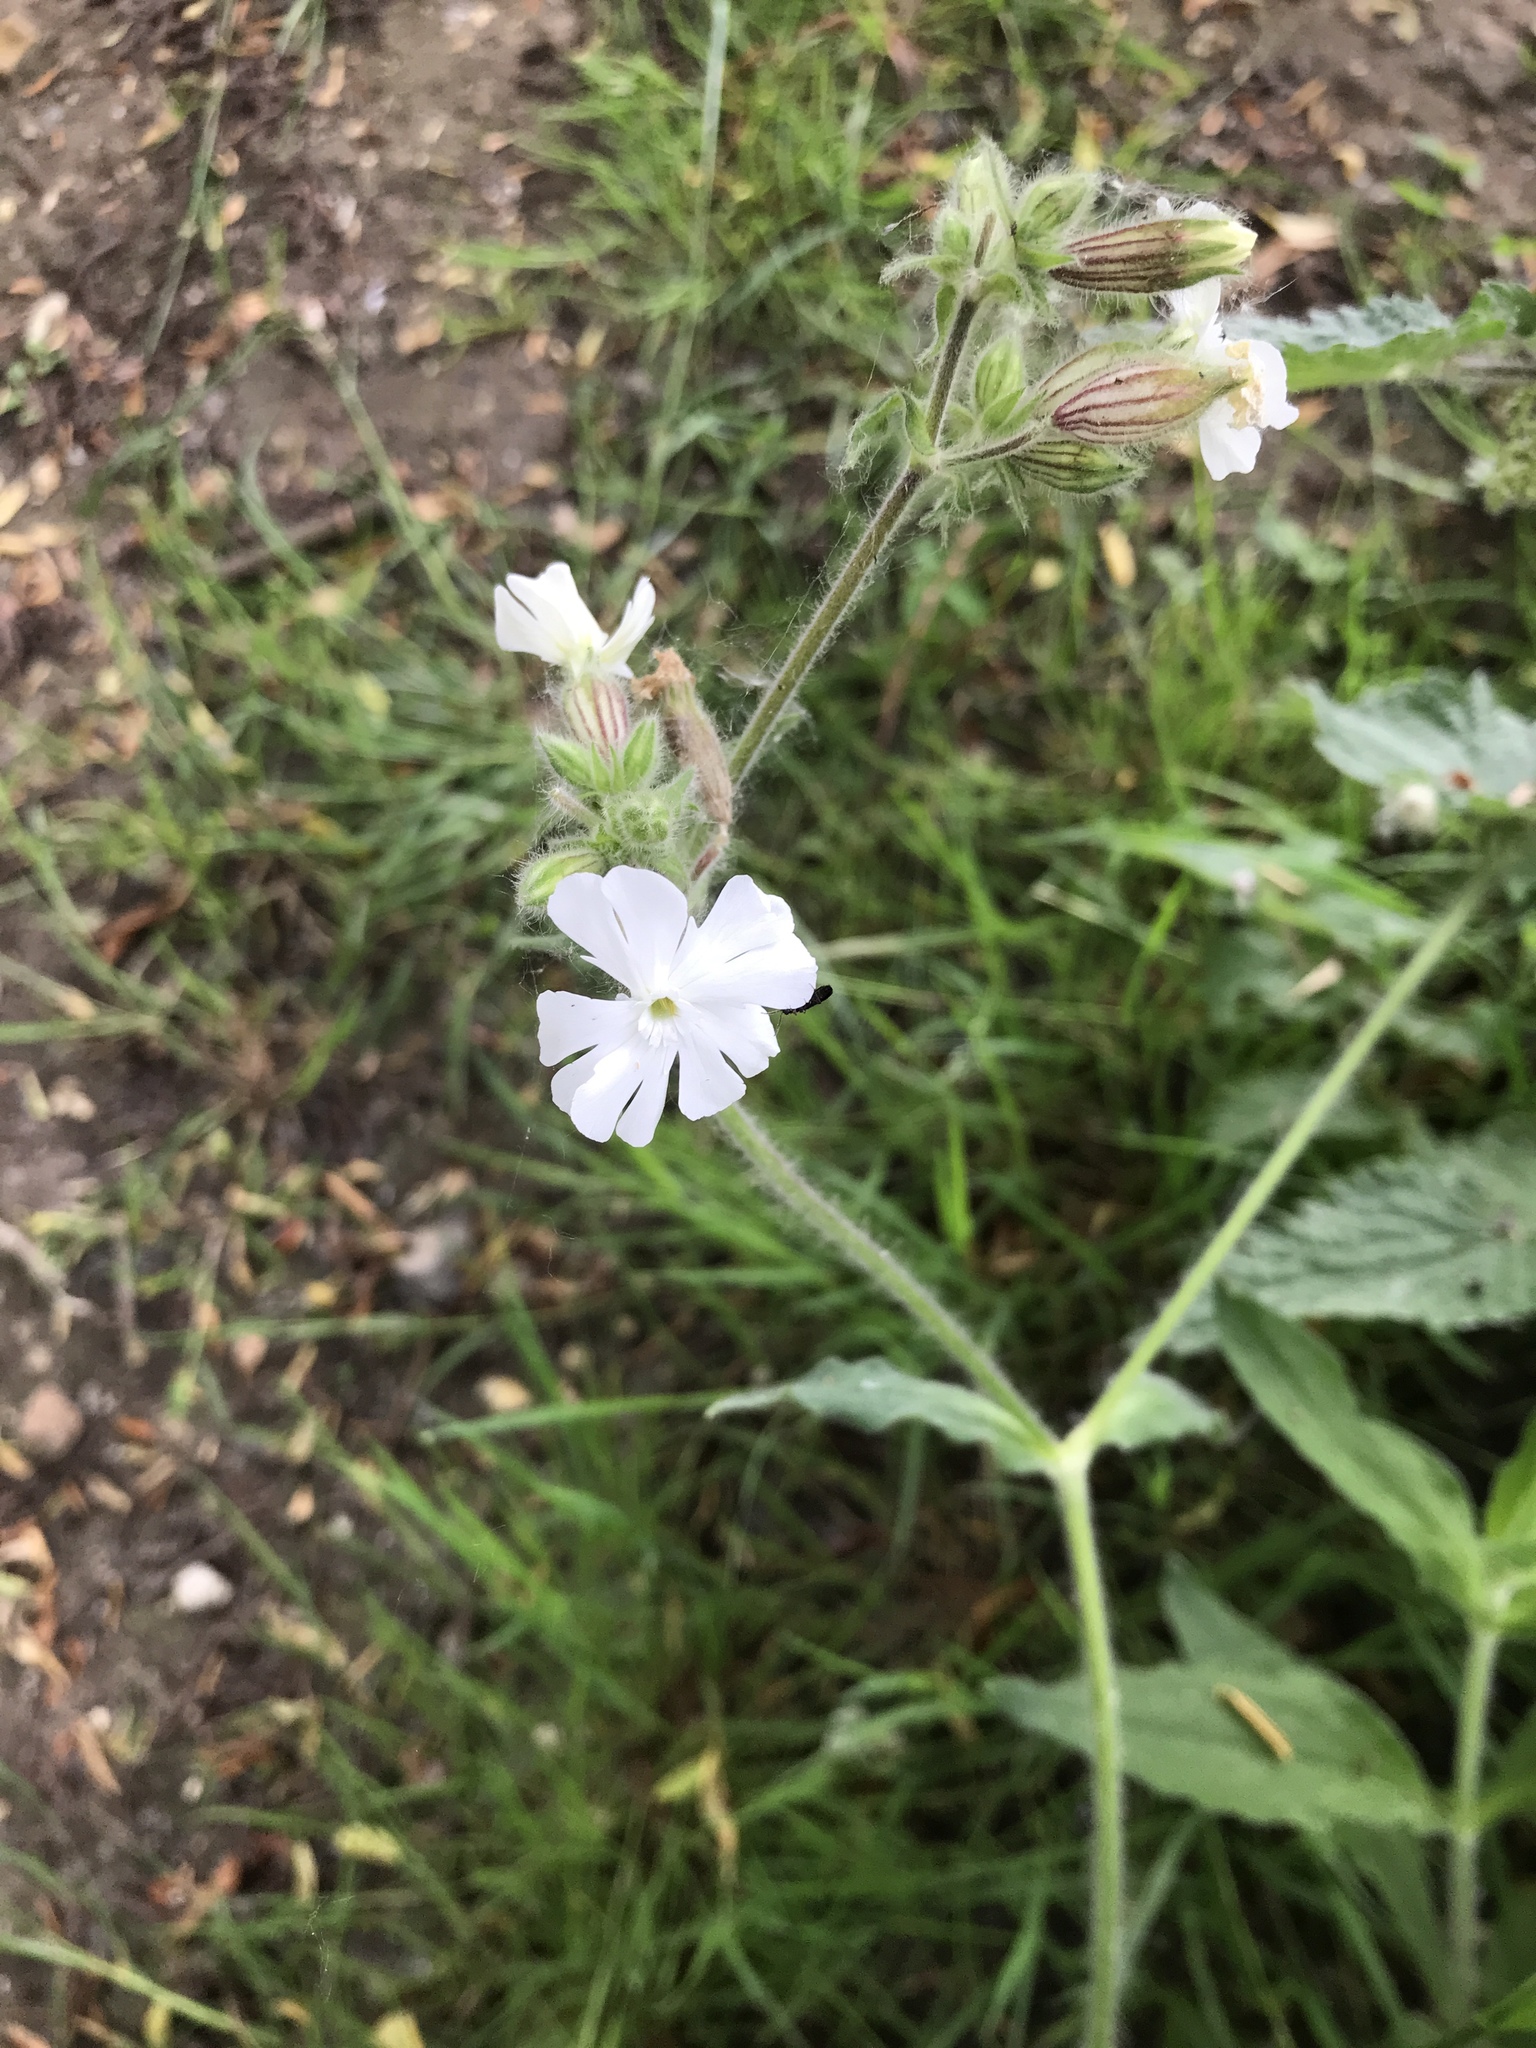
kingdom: Plantae
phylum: Tracheophyta
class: Magnoliopsida
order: Caryophyllales
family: Caryophyllaceae
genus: Silene
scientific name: Silene latifolia
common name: White campion
